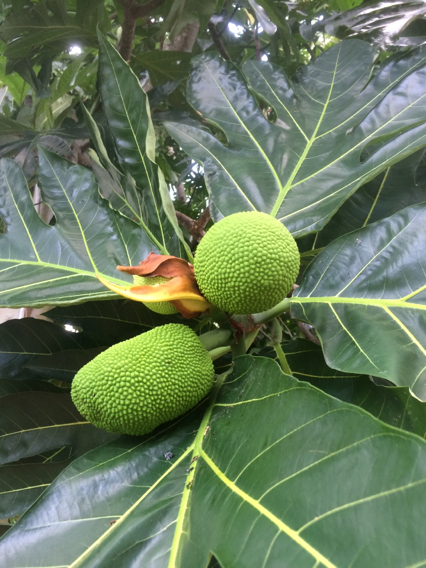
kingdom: Plantae
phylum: Tracheophyta
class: Magnoliopsida
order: Rosales
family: Moraceae
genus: Artocarpus
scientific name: Artocarpus altilis
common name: Breadfruit
